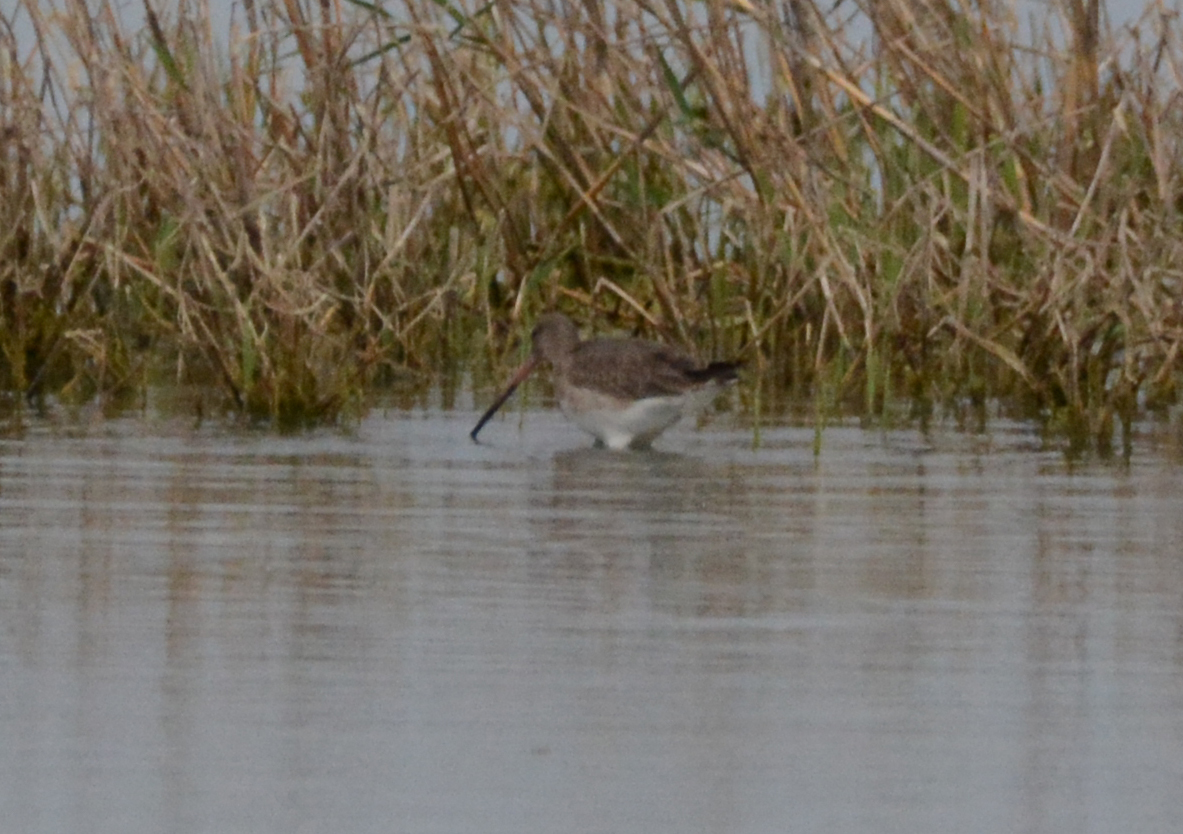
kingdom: Animalia
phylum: Chordata
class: Aves
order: Charadriiformes
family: Scolopacidae
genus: Limosa
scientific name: Limosa limosa
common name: Black-tailed godwit
